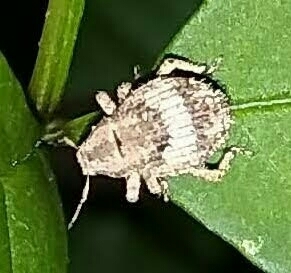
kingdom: Animalia
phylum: Arthropoda
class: Insecta
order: Coleoptera
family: Curculionidae
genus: Pseudocneorhinus
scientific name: Pseudocneorhinus obesus
